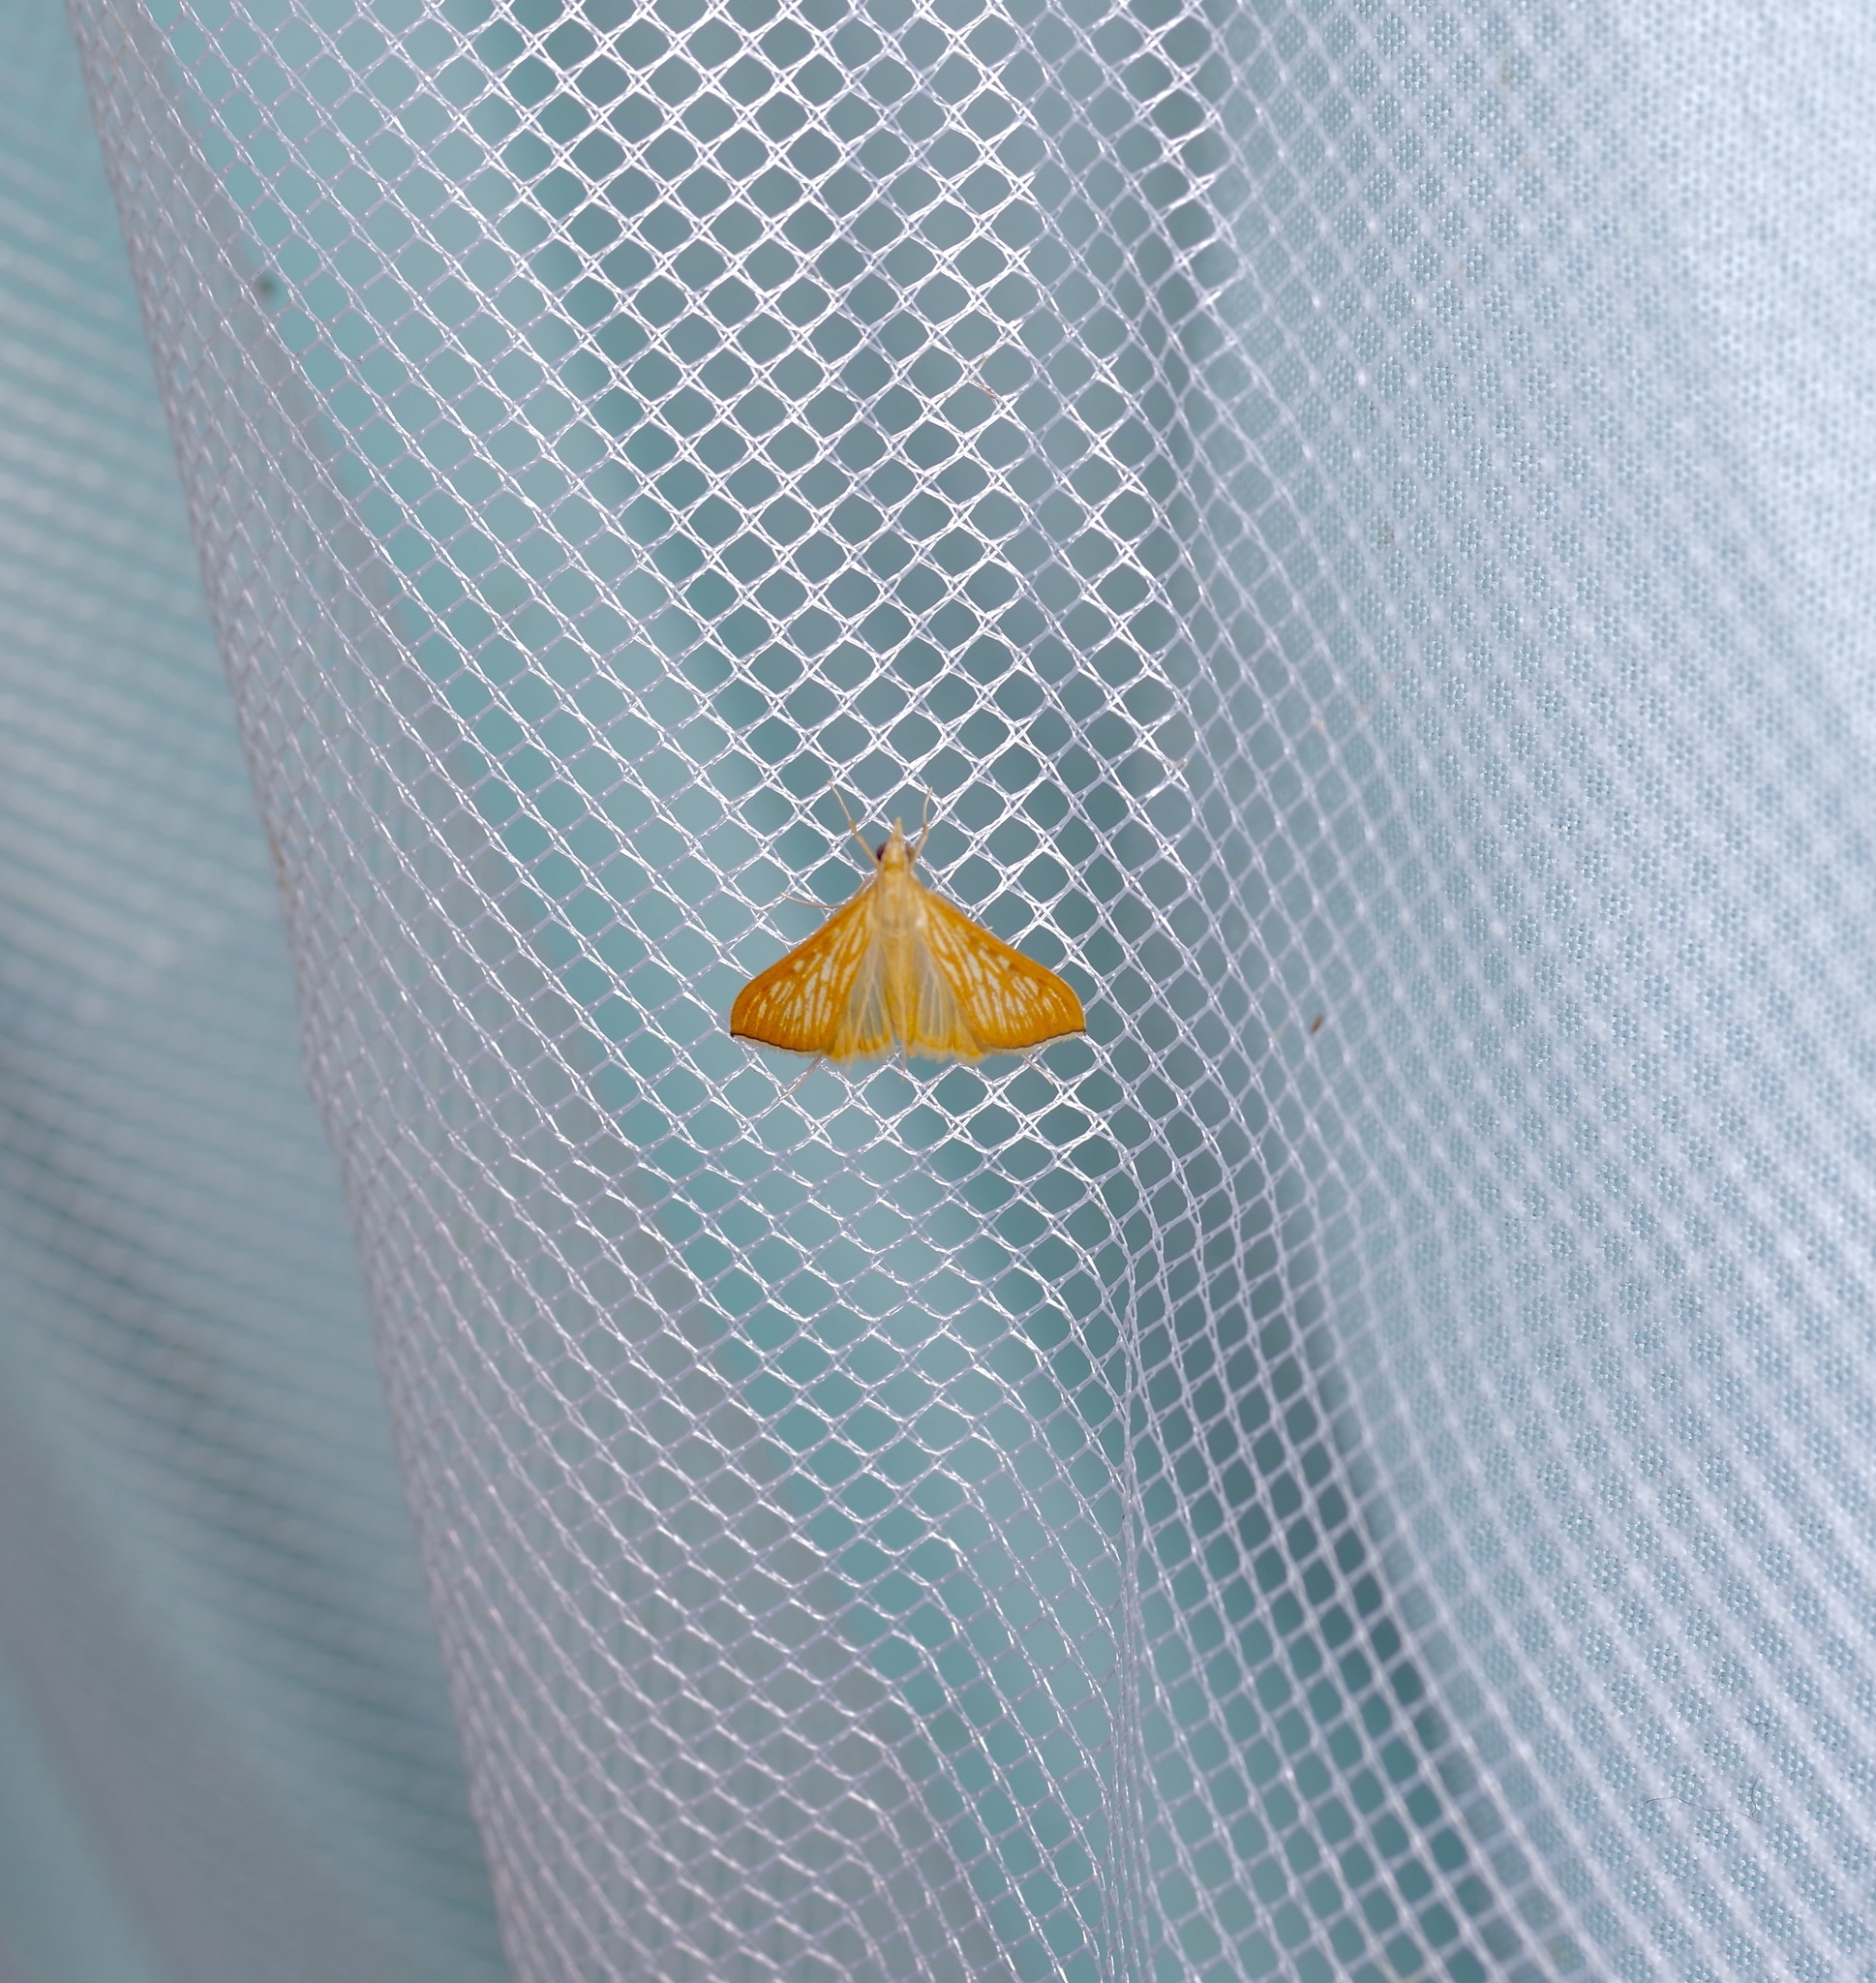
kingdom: Animalia
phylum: Arthropoda
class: Insecta
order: Lepidoptera
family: Crambidae
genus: Antigastra
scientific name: Antigastra catalaunalis
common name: Spanish dot
